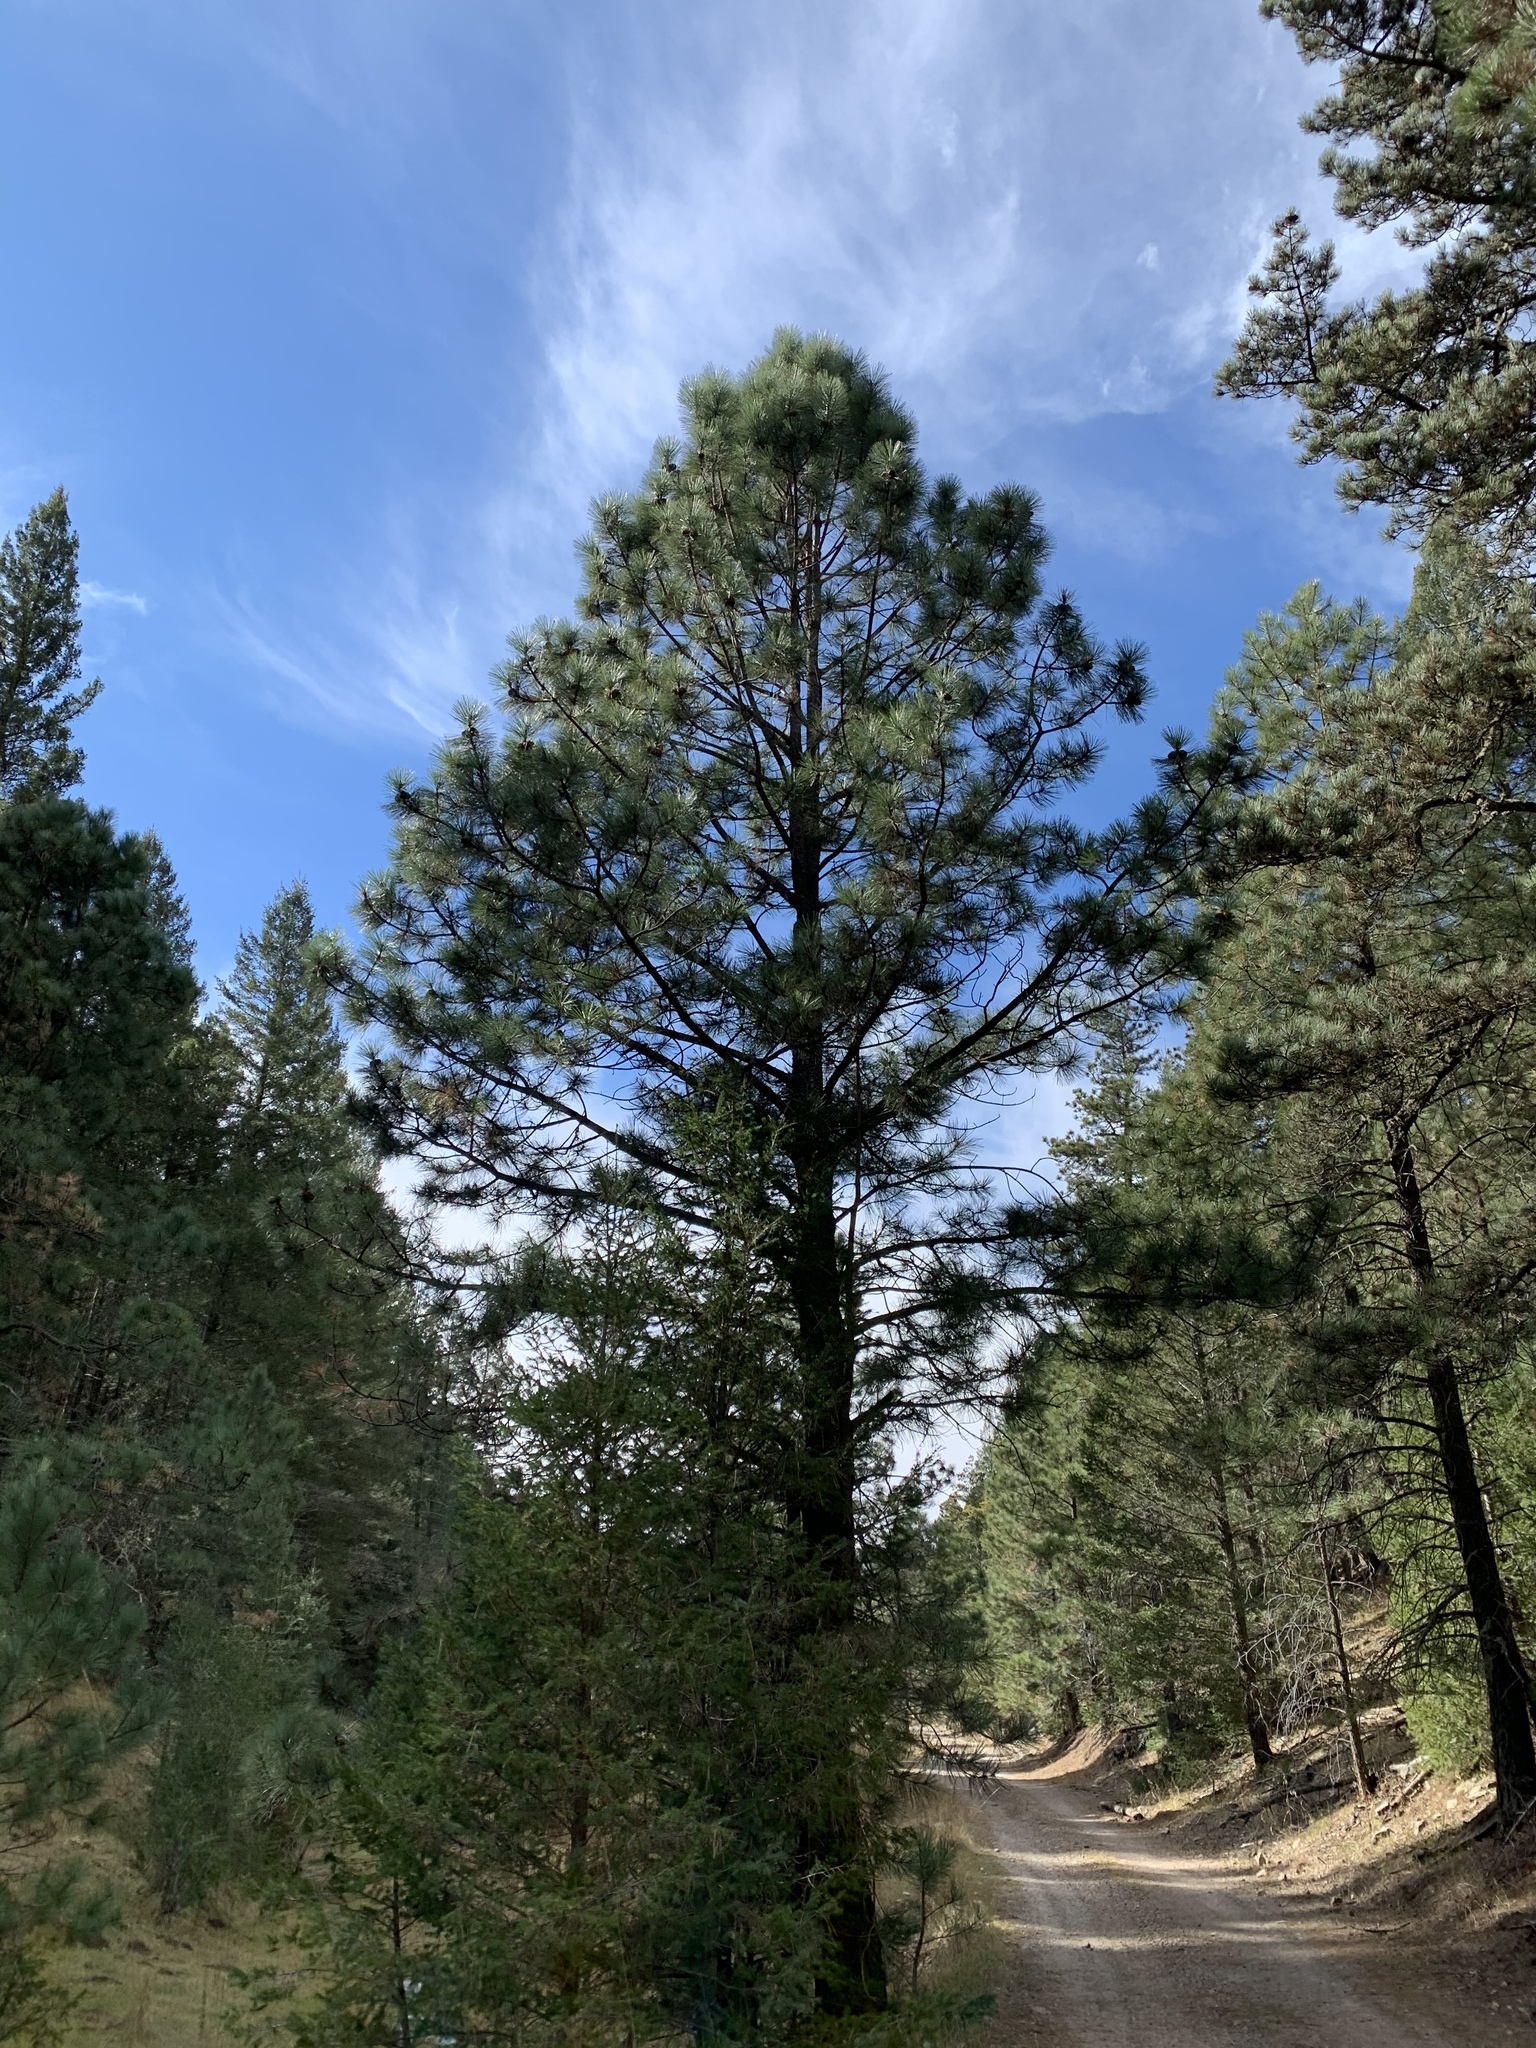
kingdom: Plantae
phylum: Tracheophyta
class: Pinopsida
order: Pinales
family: Pinaceae
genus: Pinus
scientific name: Pinus ponderosa
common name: Western yellow-pine
